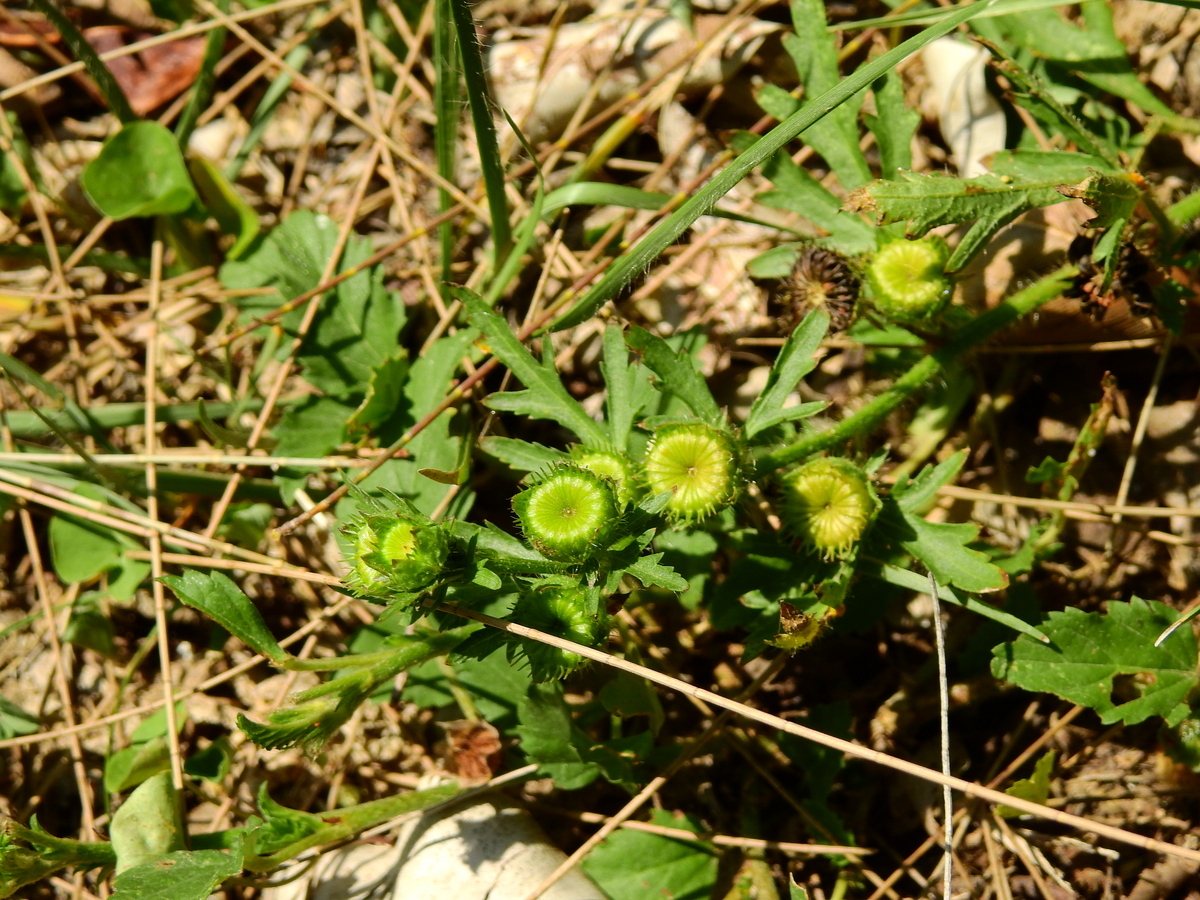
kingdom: Plantae
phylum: Tracheophyta
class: Magnoliopsida
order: Malvales
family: Malvaceae
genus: Modiola
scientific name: Modiola caroliniana
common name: Carolina bristlemallow
